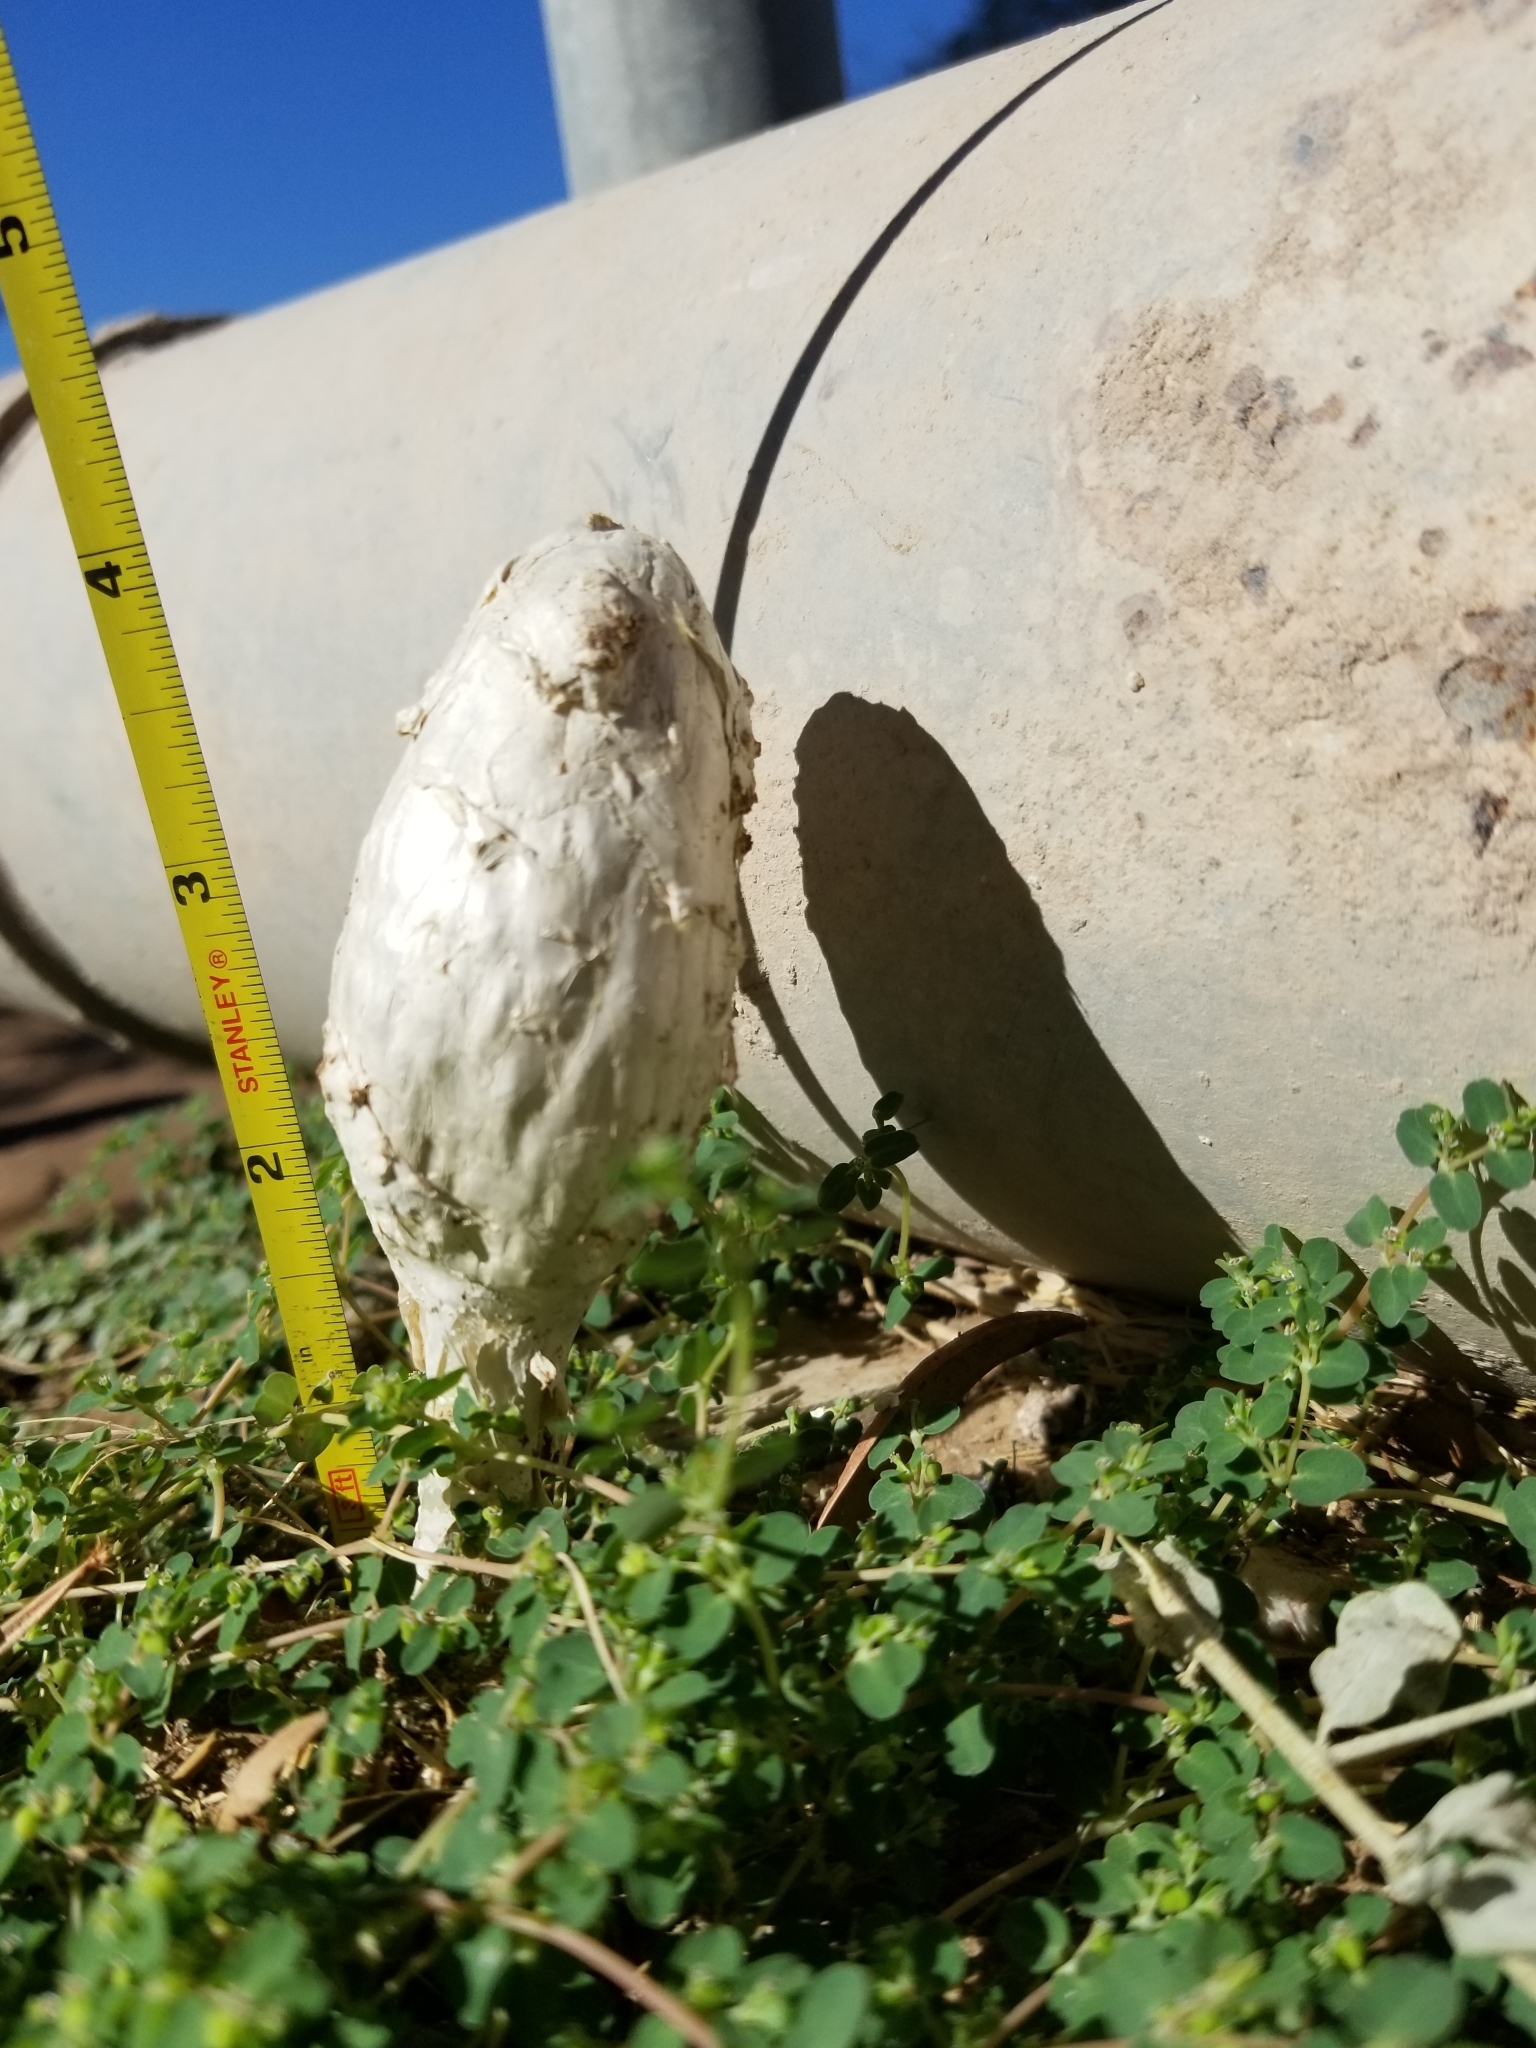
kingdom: Fungi
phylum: Basidiomycota
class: Agaricomycetes
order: Agaricales
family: Agaricaceae
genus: Podaxis
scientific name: Podaxis pistillaris
